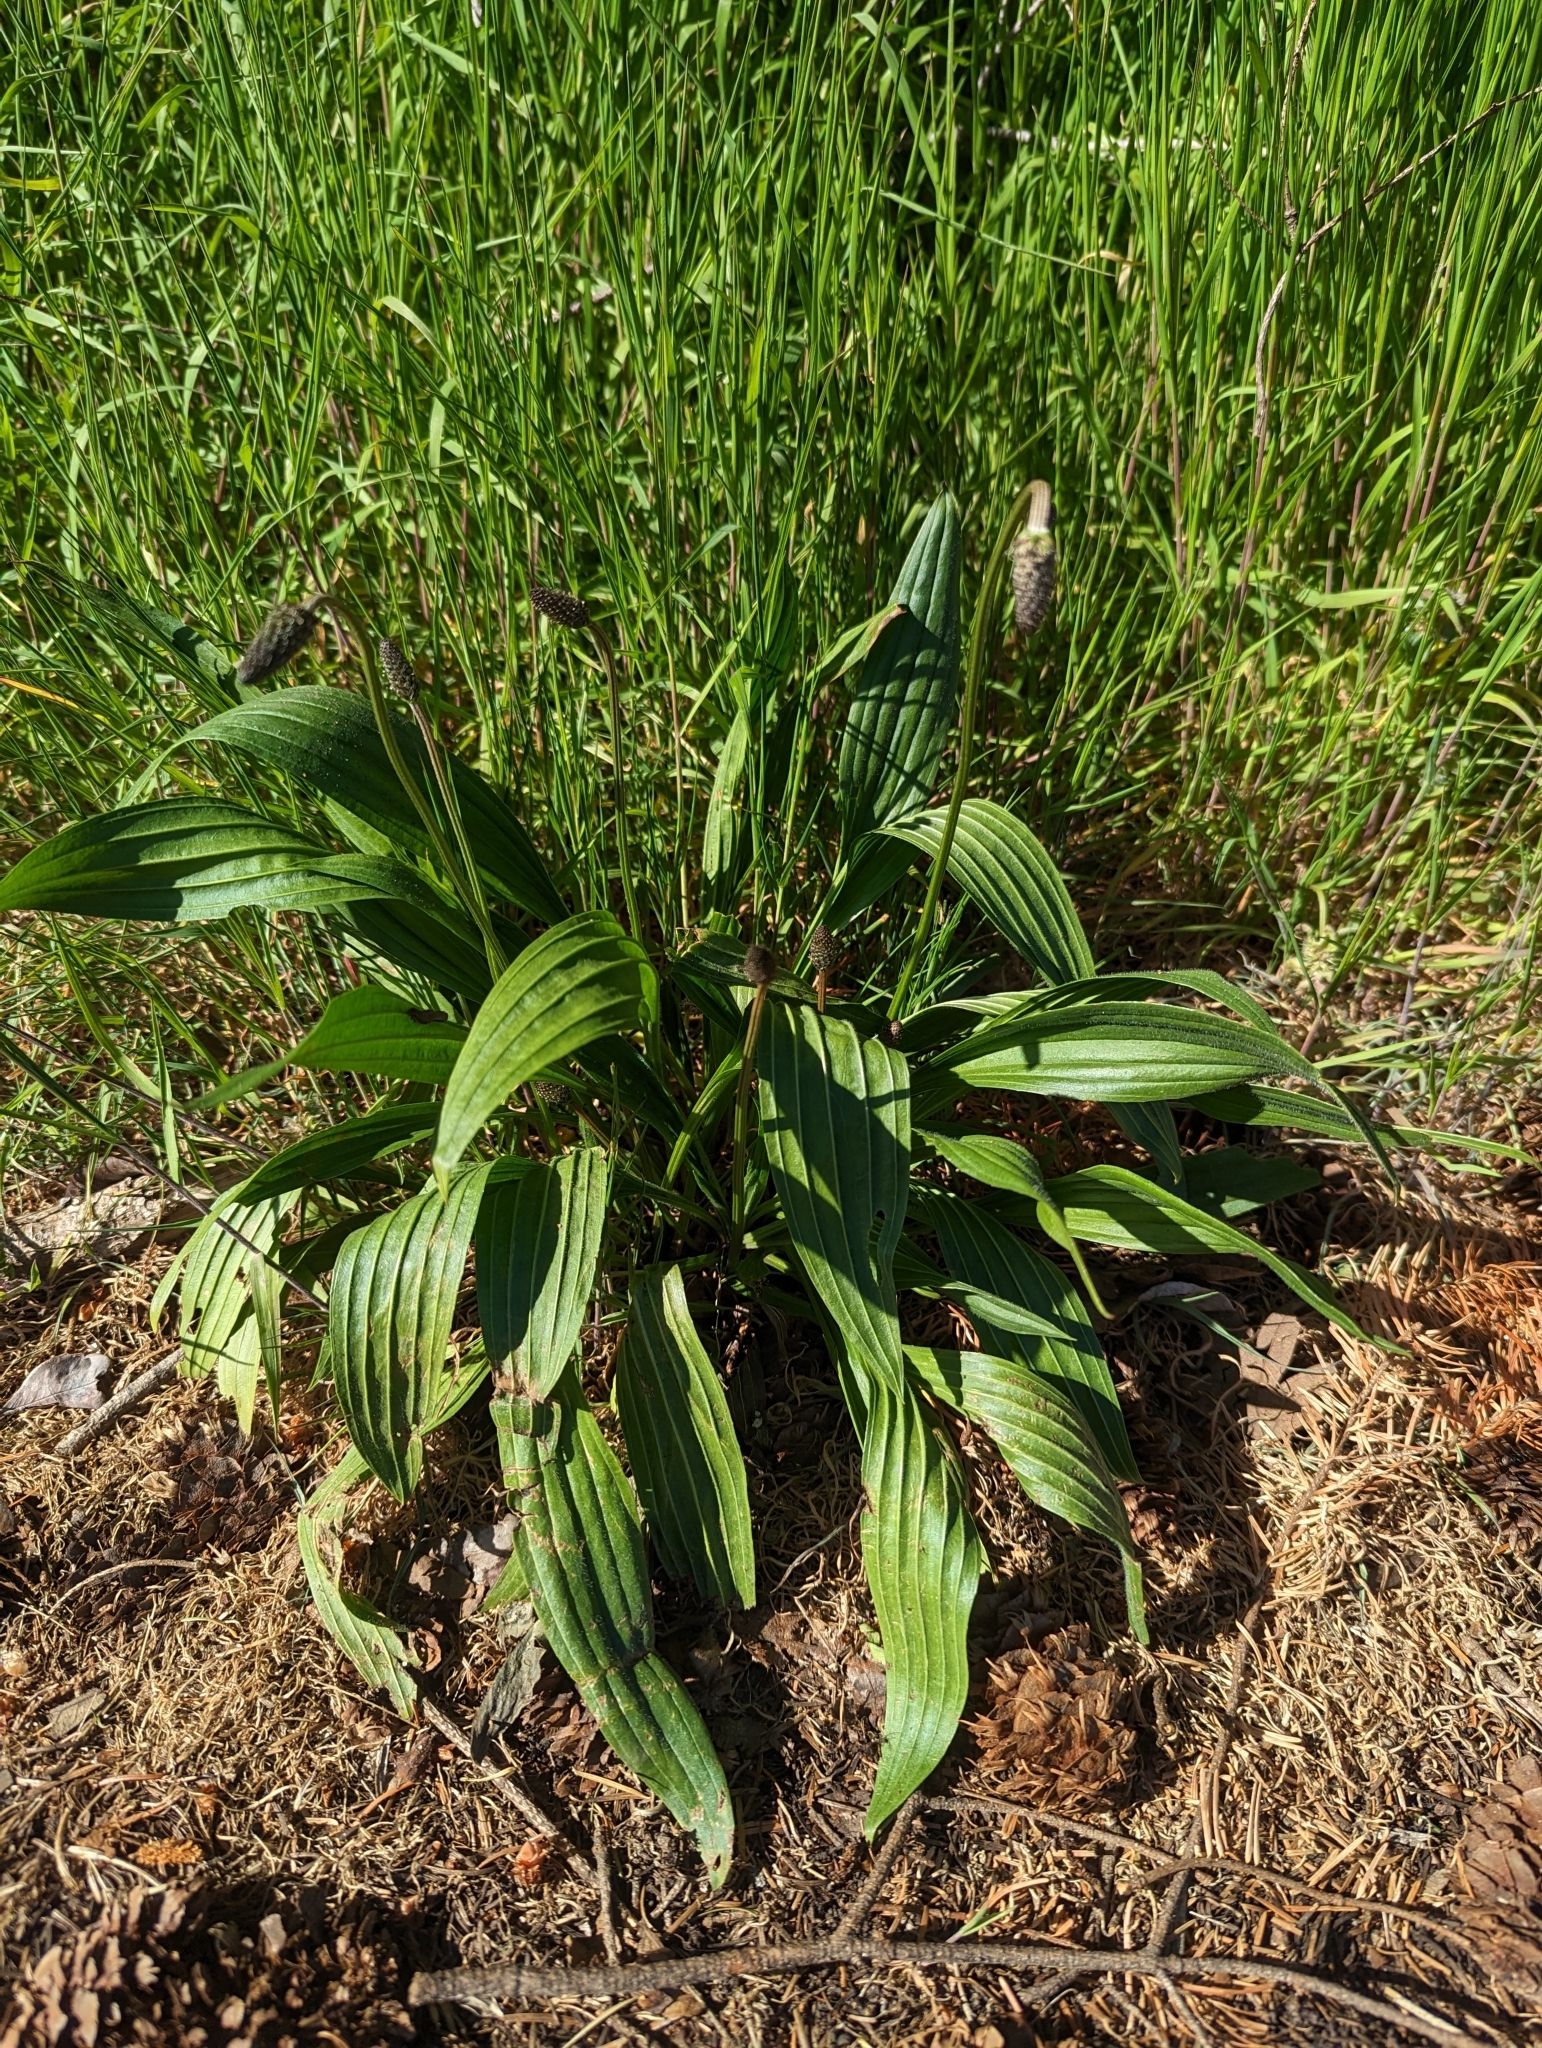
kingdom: Plantae
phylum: Tracheophyta
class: Magnoliopsida
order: Lamiales
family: Plantaginaceae
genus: Plantago
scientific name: Plantago lanceolata
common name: Ribwort plantain
